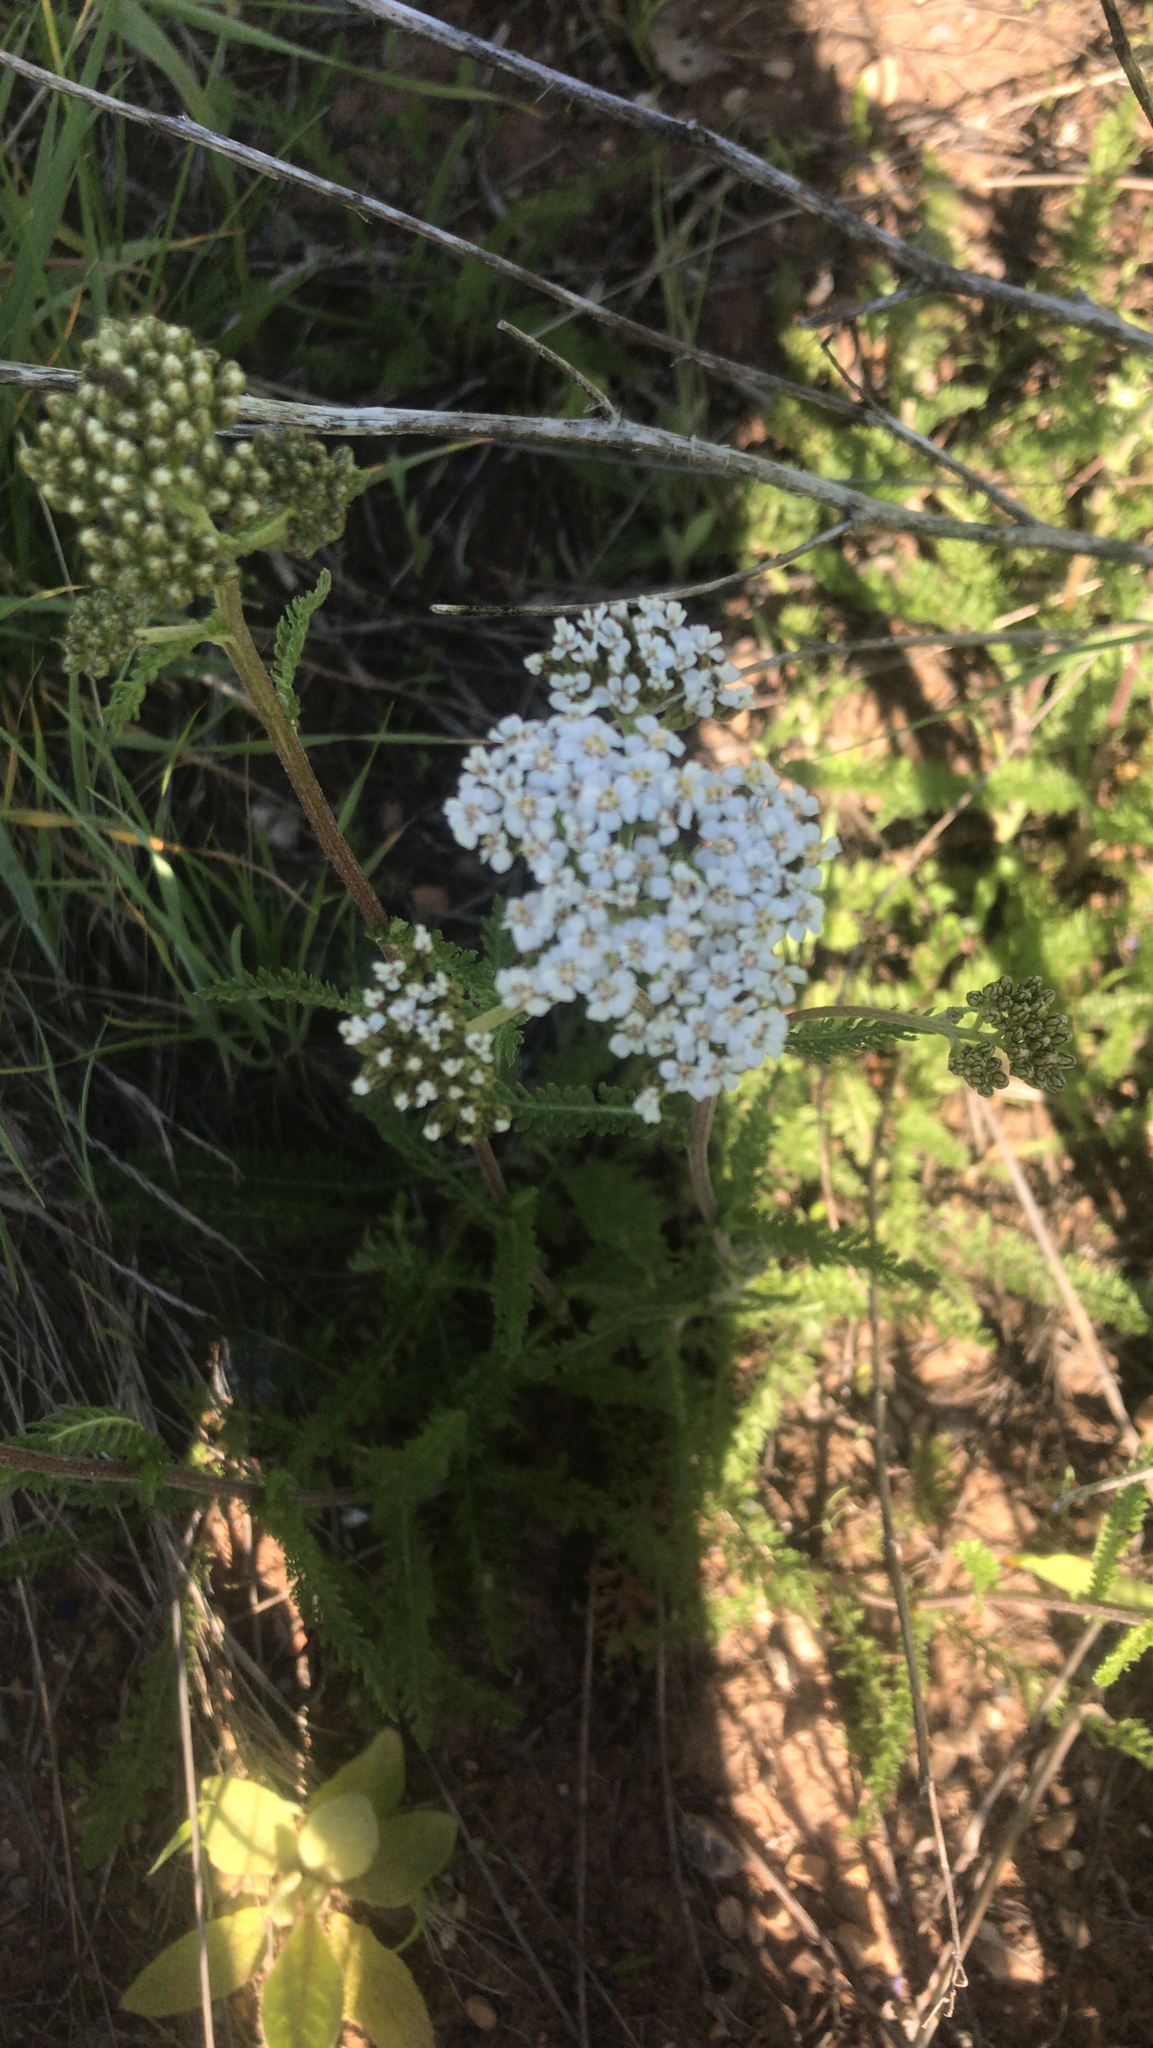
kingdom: Plantae
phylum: Tracheophyta
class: Magnoliopsida
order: Asterales
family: Asteraceae
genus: Achillea
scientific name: Achillea millefolium
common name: Yarrow
